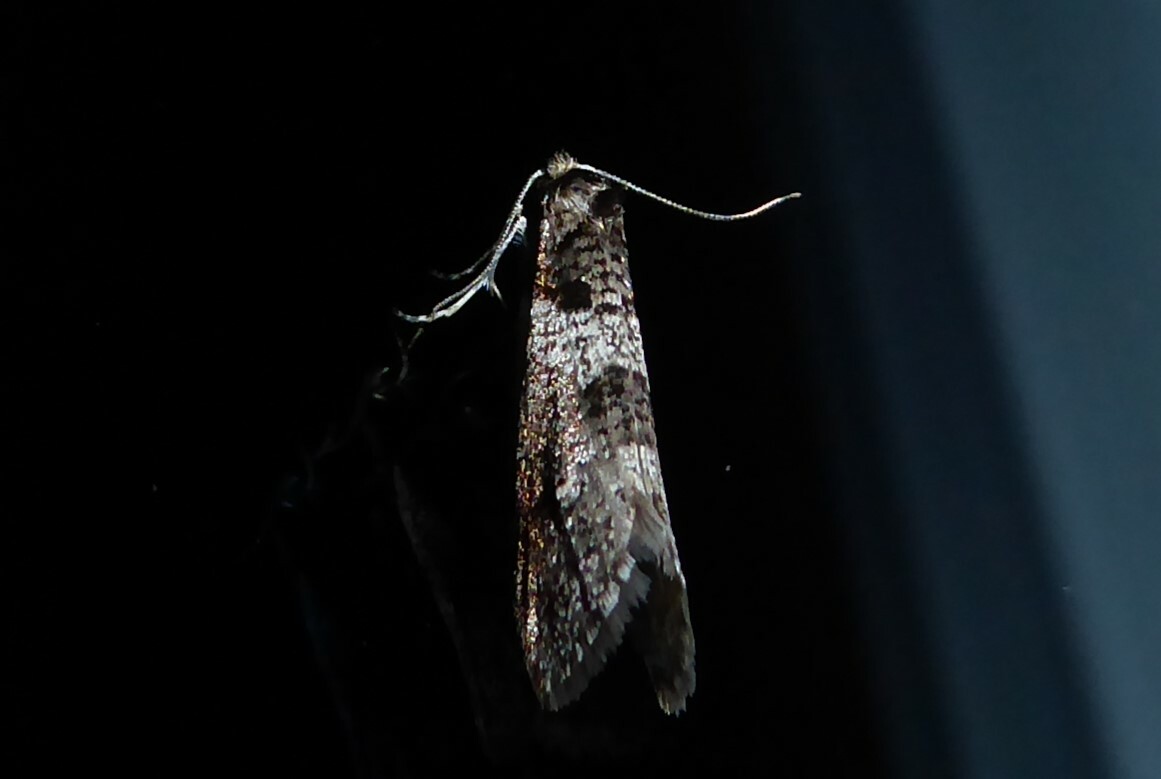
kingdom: Animalia
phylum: Arthropoda
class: Insecta
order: Lepidoptera
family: Psychidae
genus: Lepidoscia
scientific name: Lepidoscia heliochares
